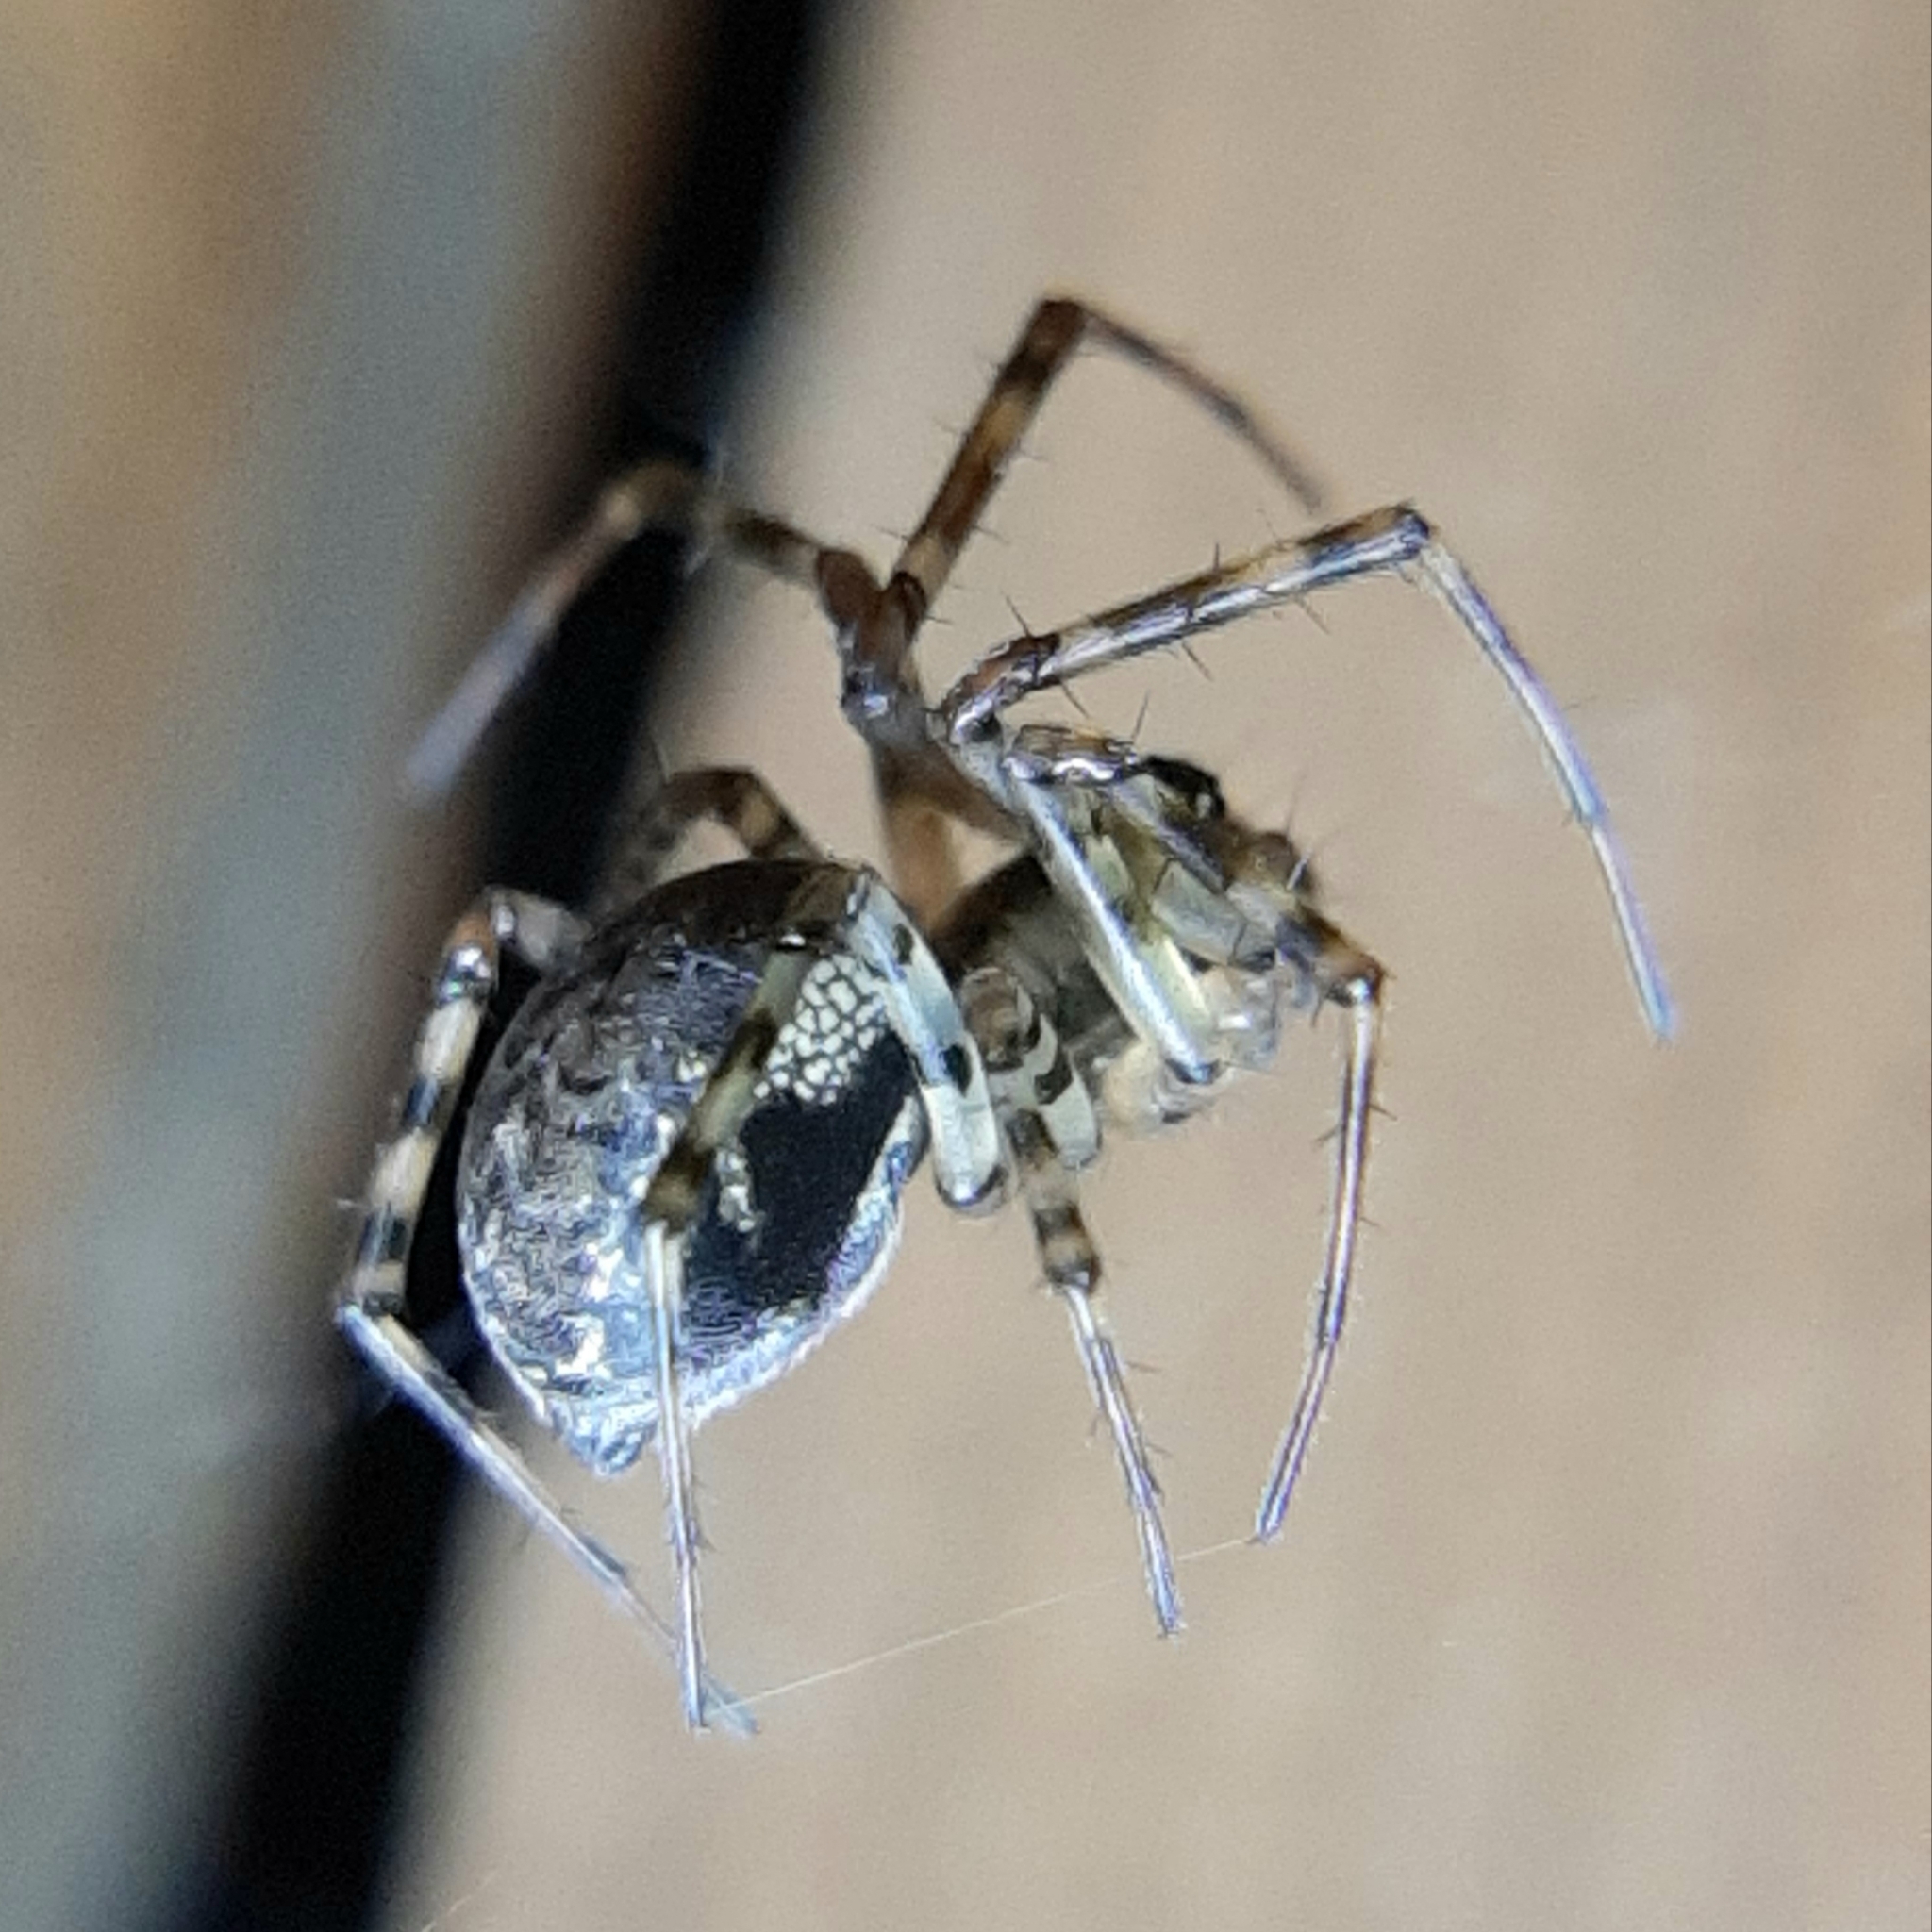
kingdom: Animalia
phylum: Arthropoda
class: Arachnida
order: Araneae
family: Linyphiidae
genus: Neriene
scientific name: Neriene montana
